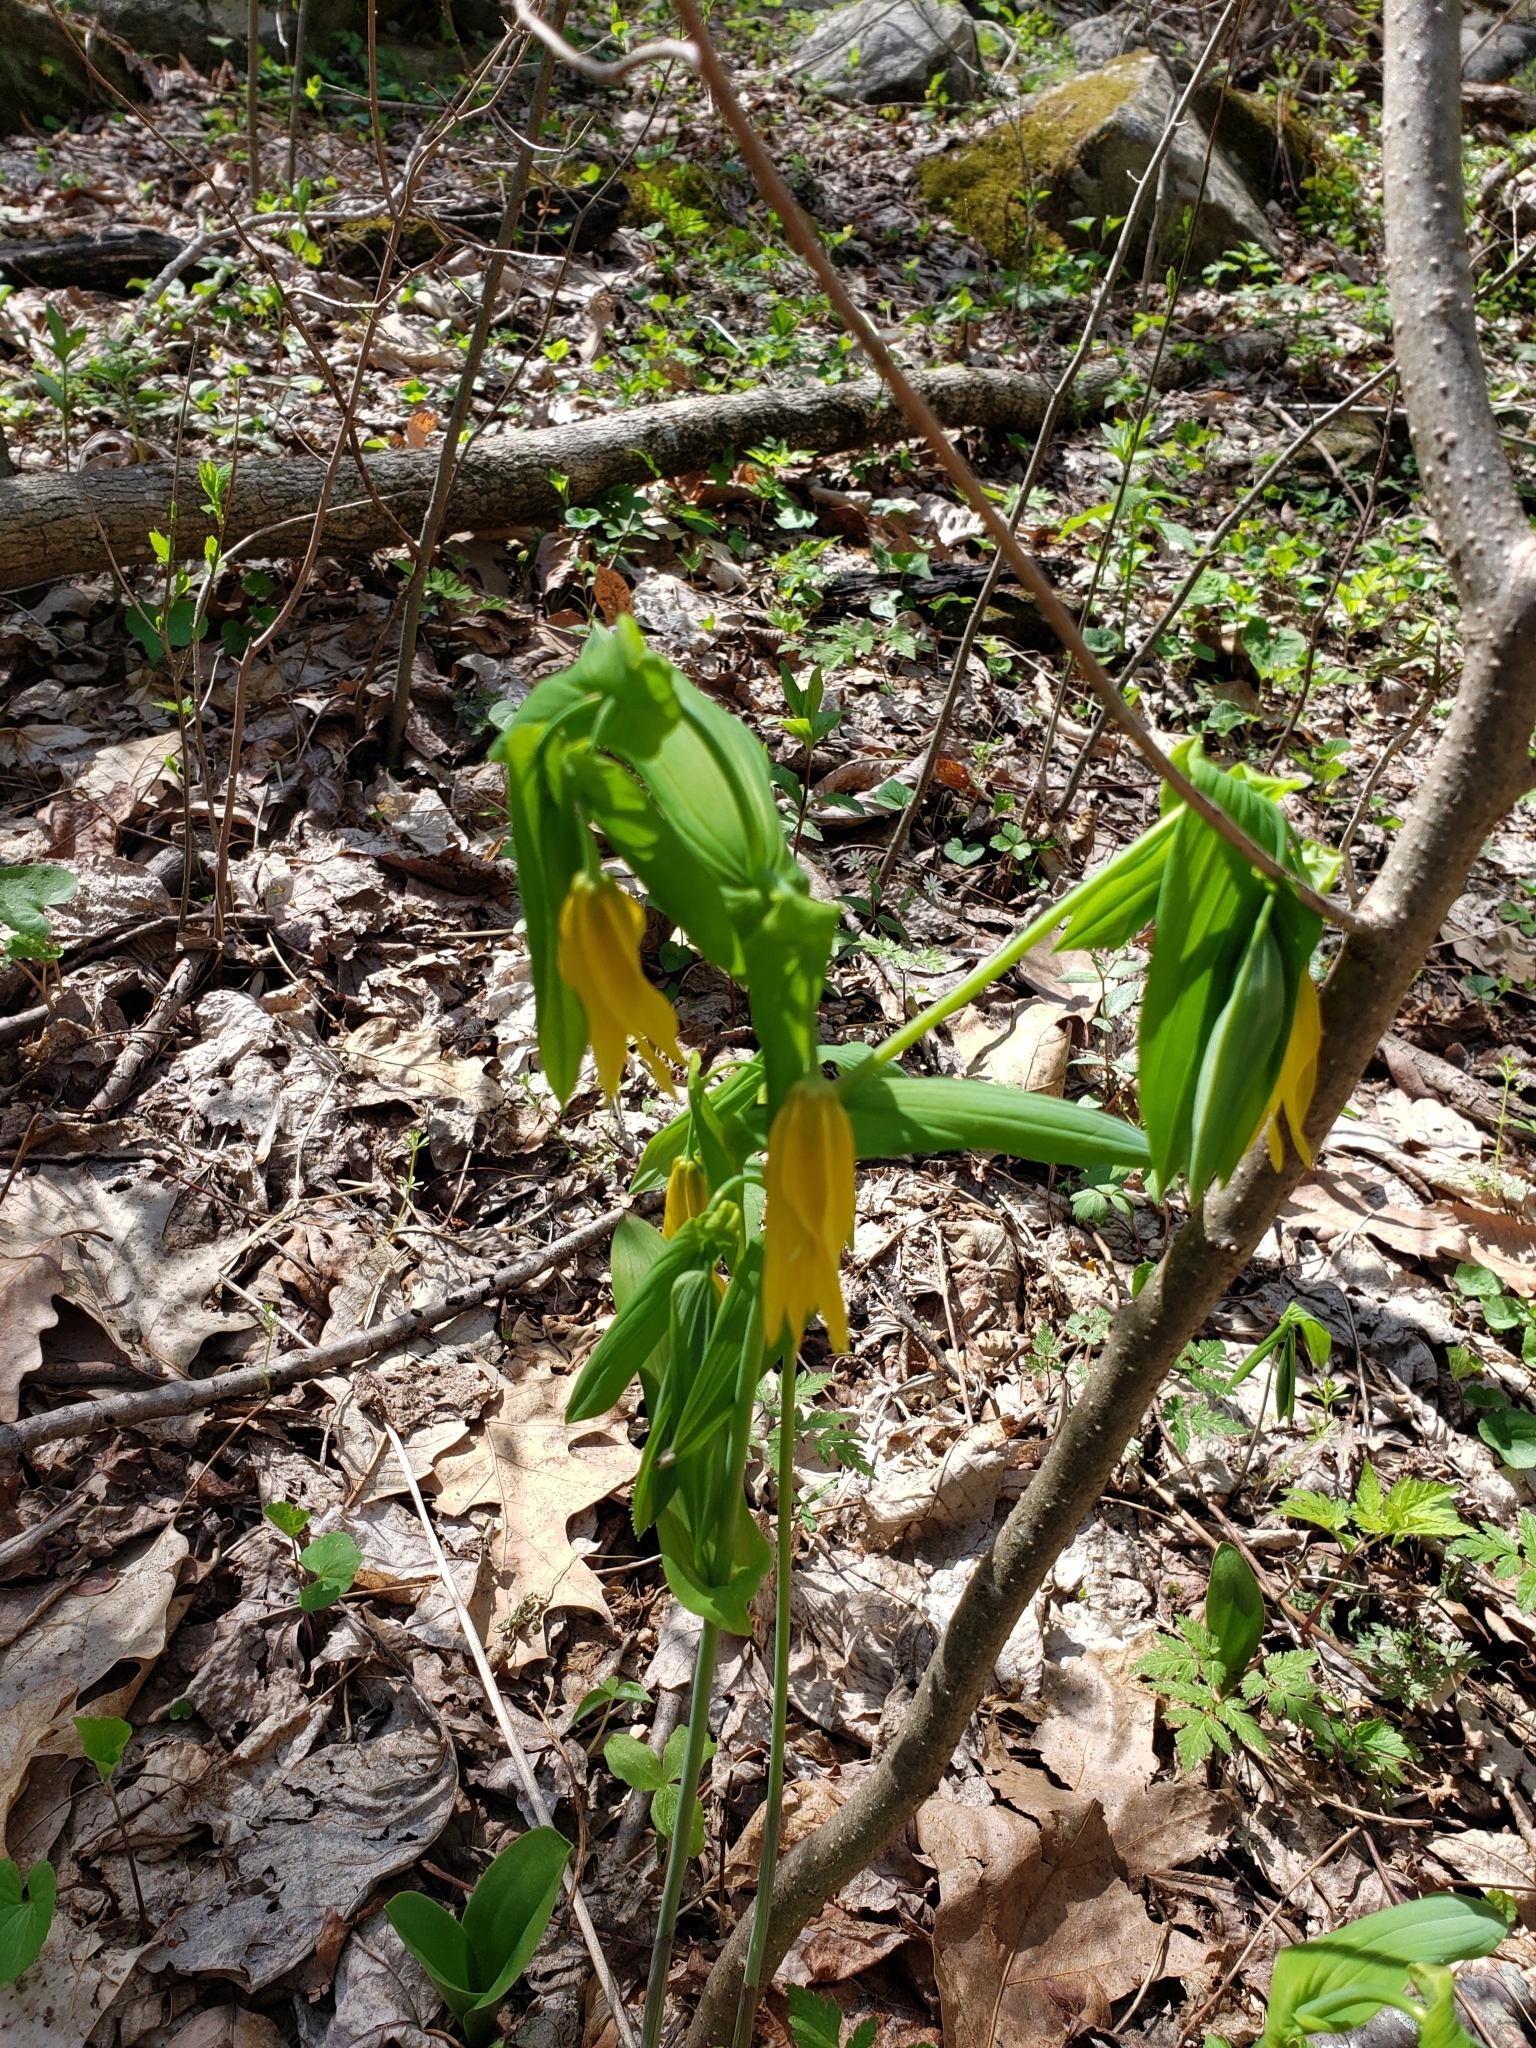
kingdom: Plantae
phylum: Tracheophyta
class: Liliopsida
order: Liliales
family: Colchicaceae
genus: Uvularia
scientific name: Uvularia grandiflora
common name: Bellwort
